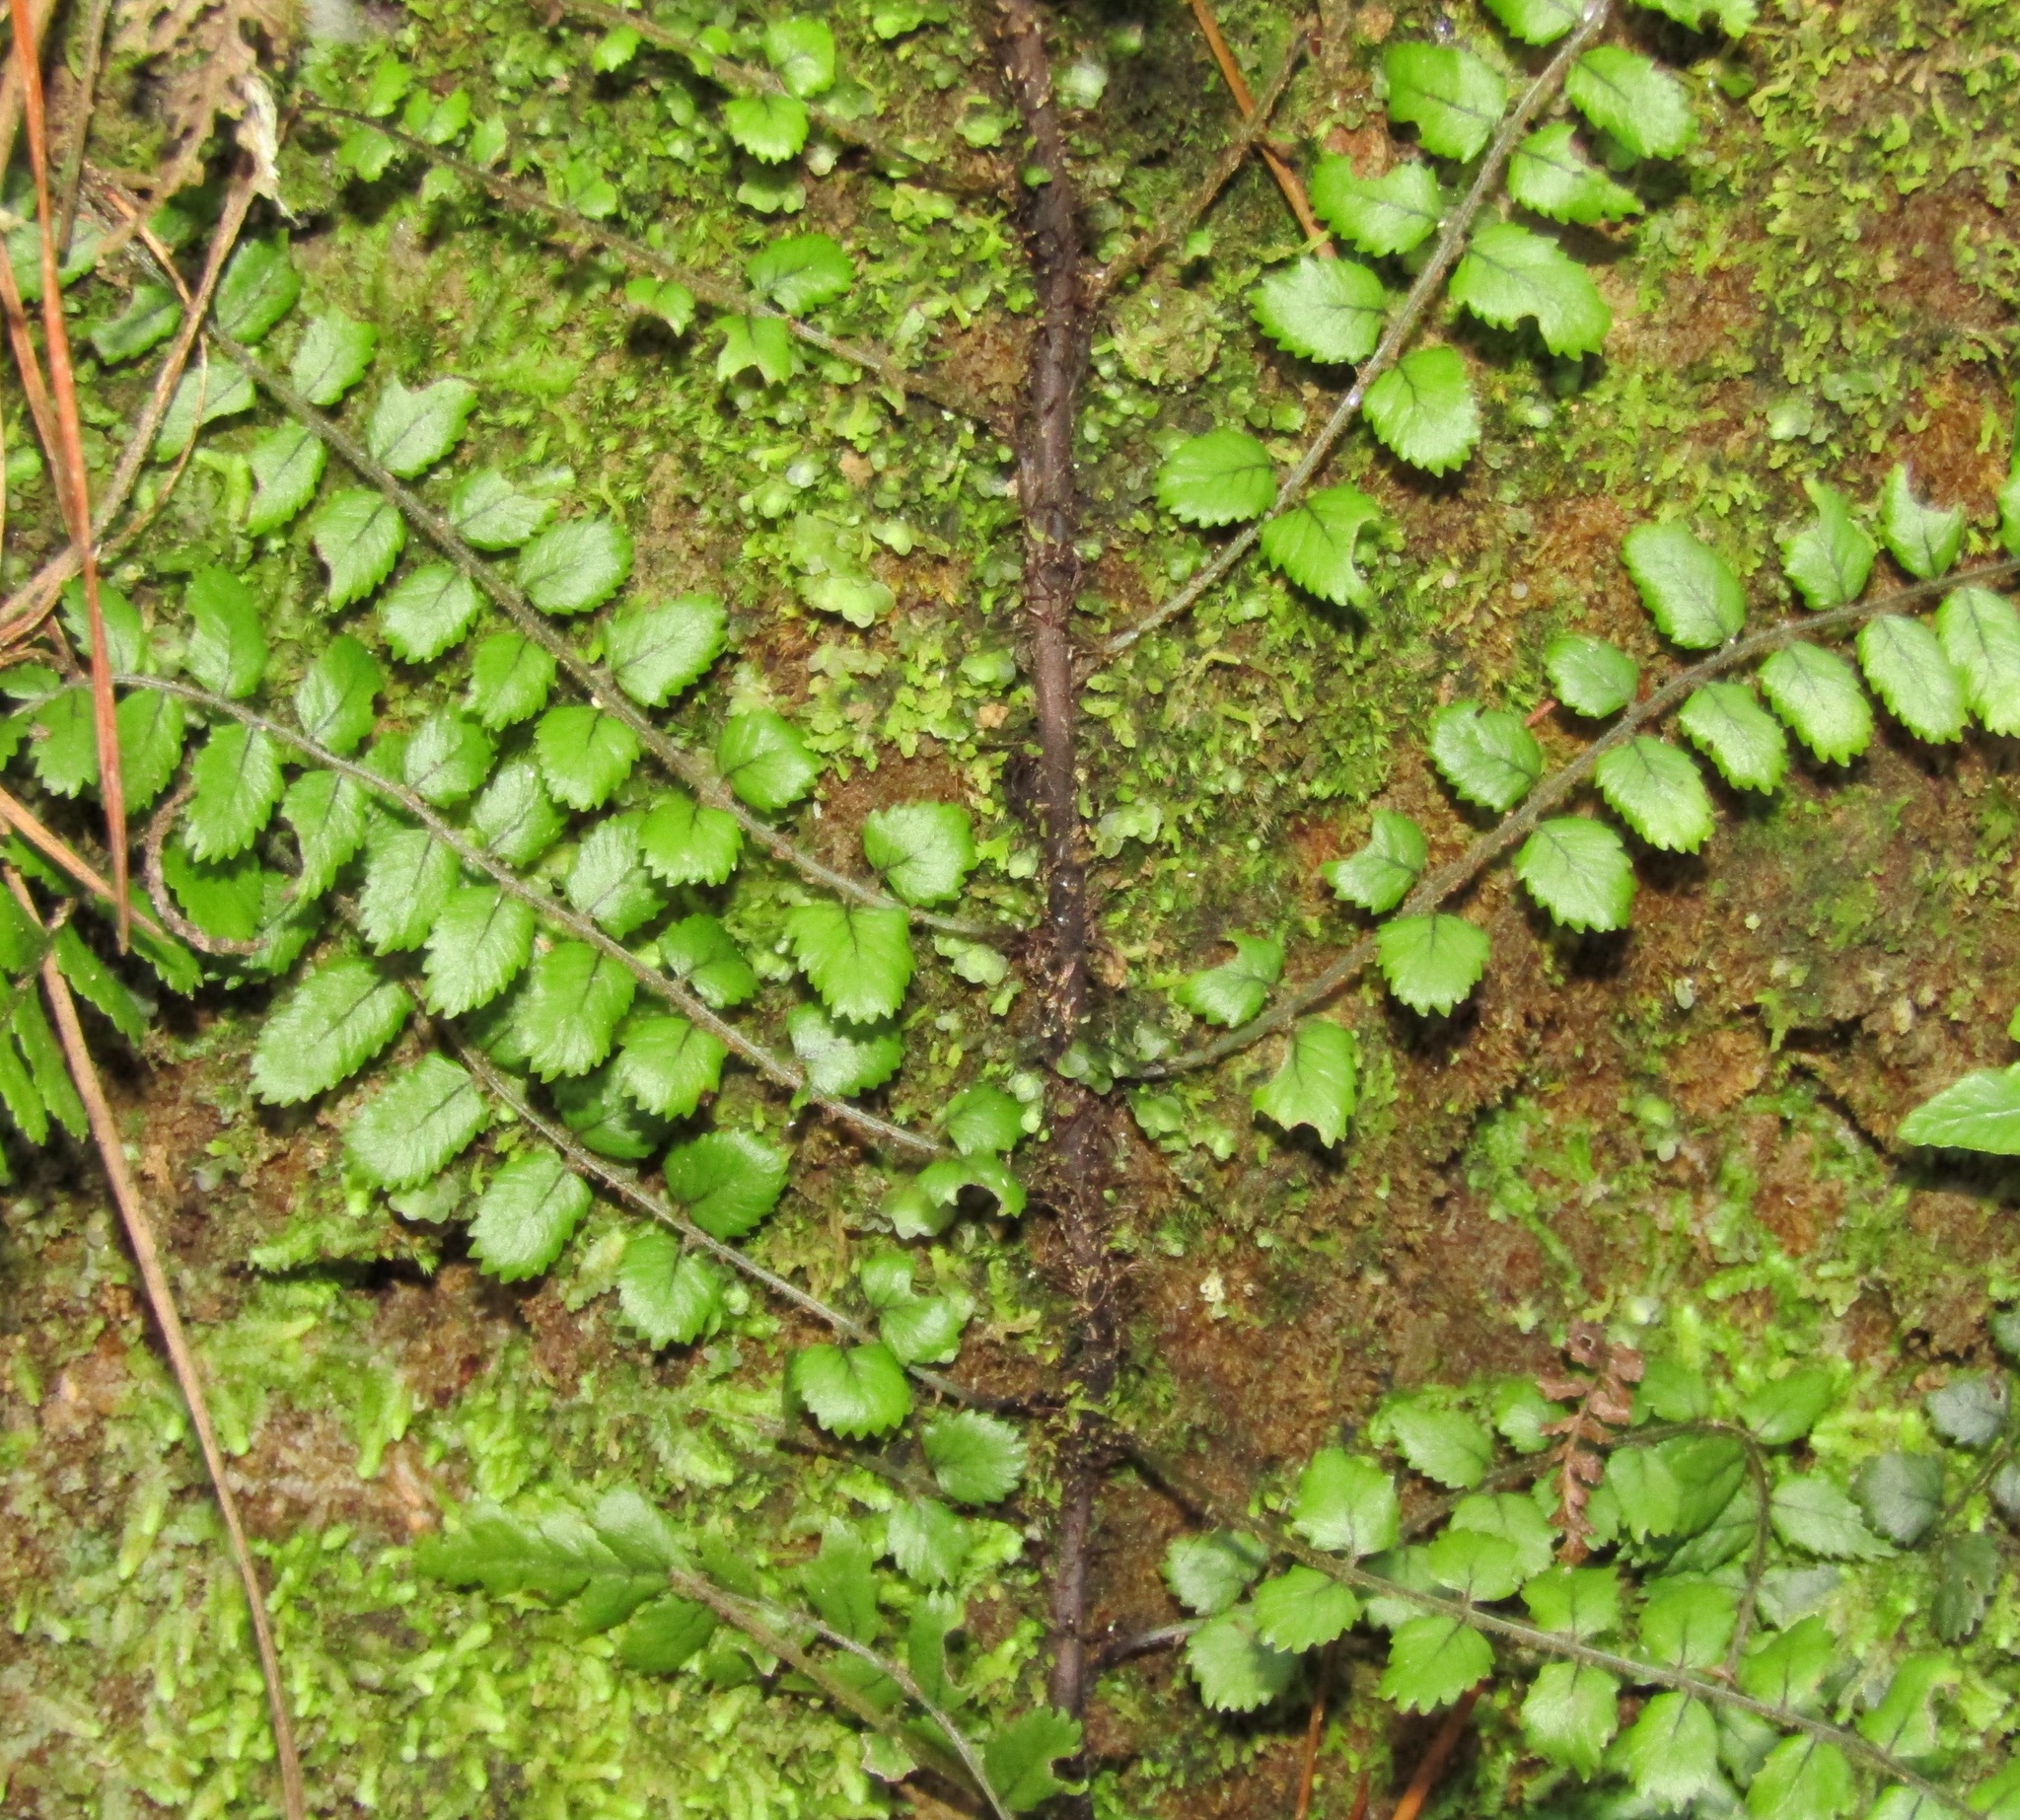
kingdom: Plantae
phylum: Tracheophyta
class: Polypodiopsida
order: Polypodiales
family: Blechnaceae
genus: Icarus
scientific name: Icarus filiformis
